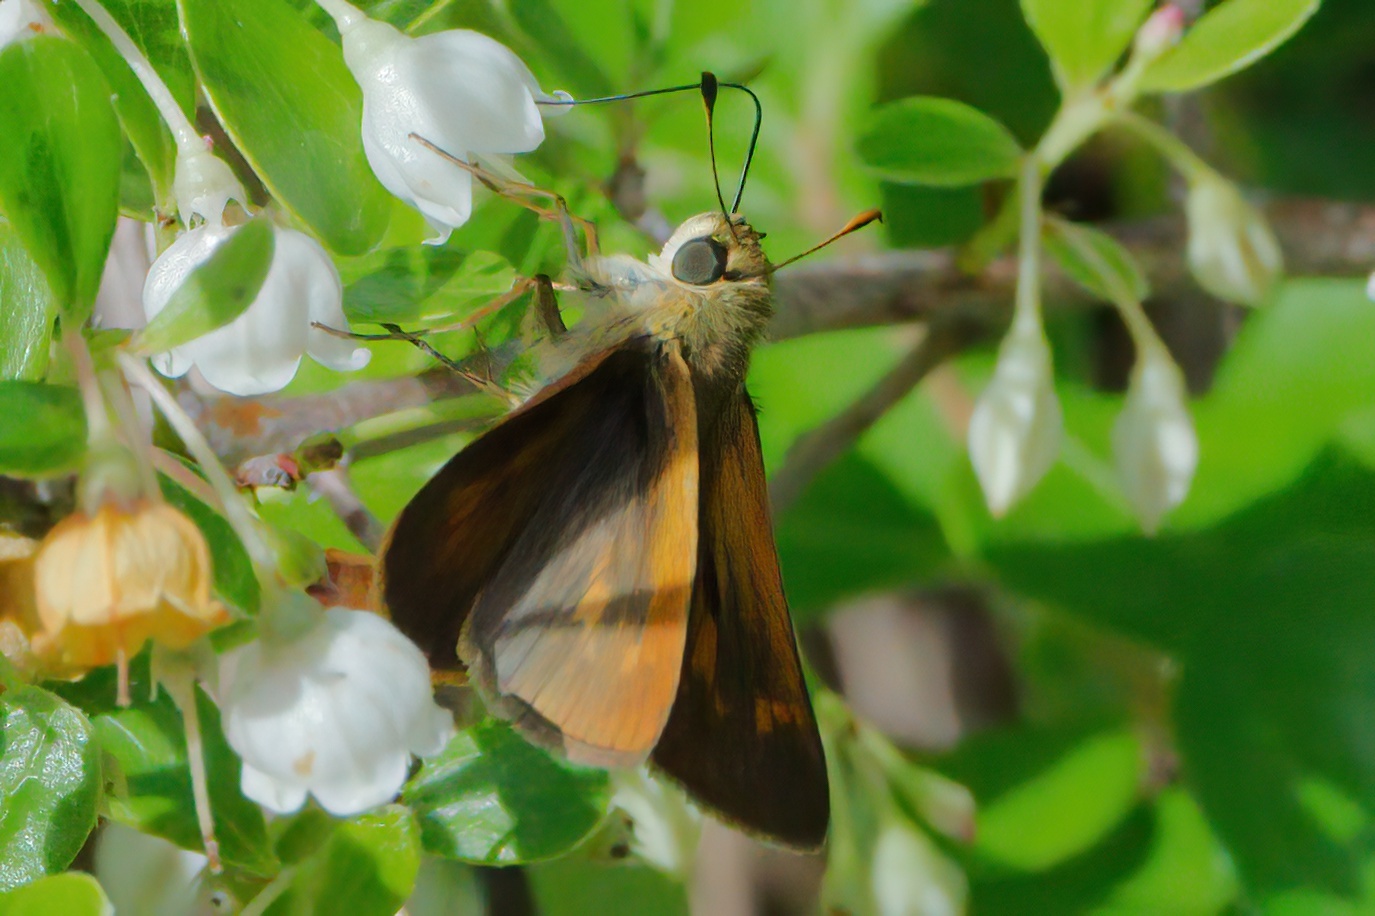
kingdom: Animalia
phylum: Arthropoda
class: Insecta
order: Lepidoptera
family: Hesperiidae
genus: Polites
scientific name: Polites otho
